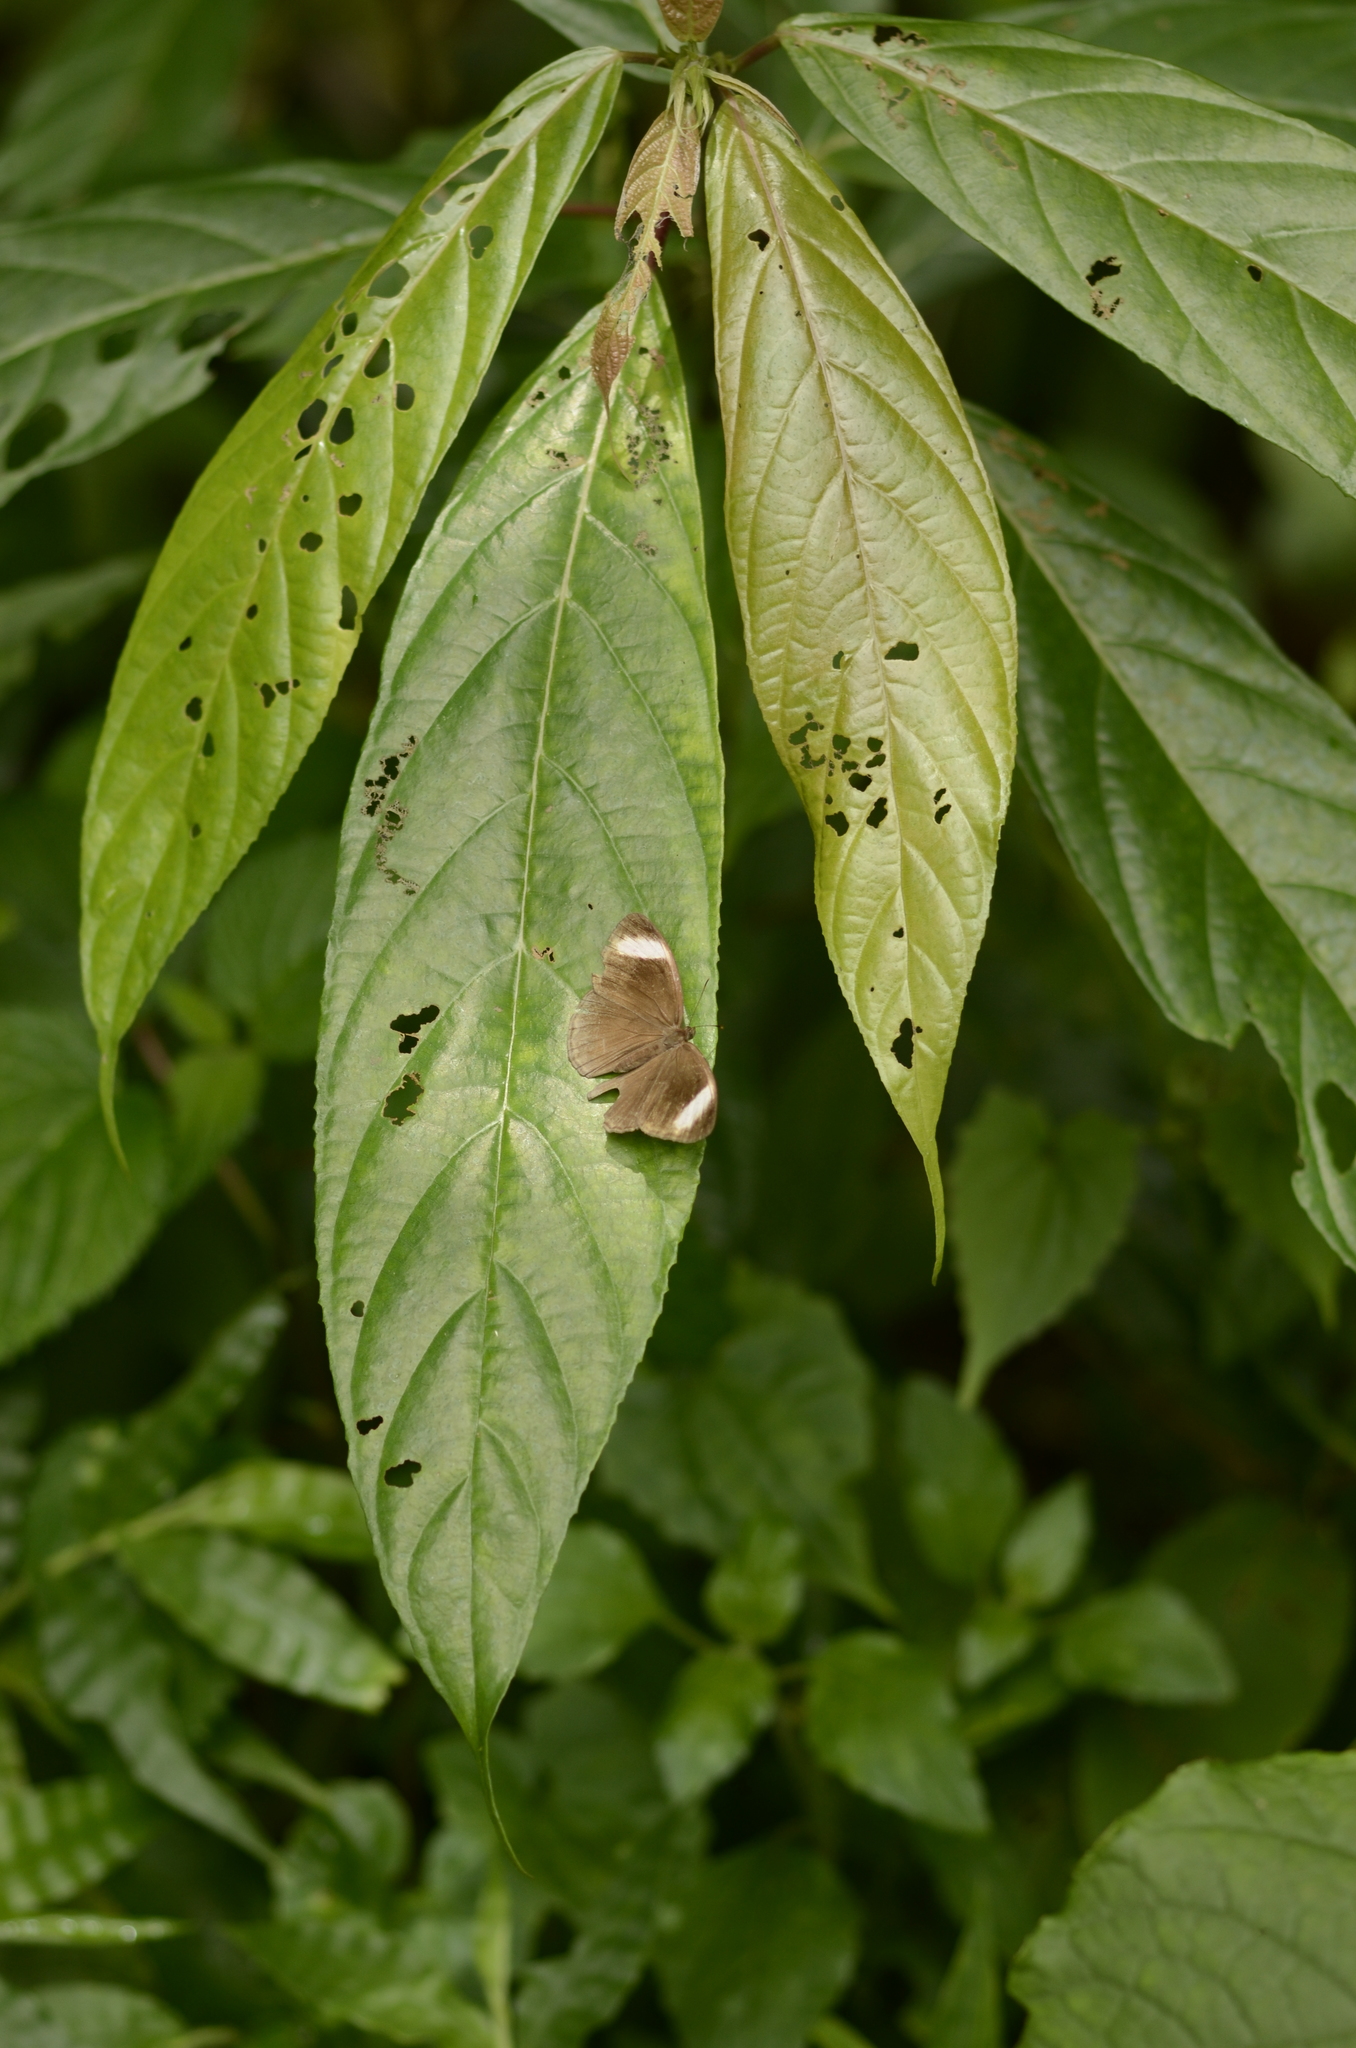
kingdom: Animalia
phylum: Arthropoda
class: Insecta
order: Lepidoptera
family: Nymphalidae
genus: Mycalesis
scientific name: Mycalesis anaxias
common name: White-bar bushbrown
